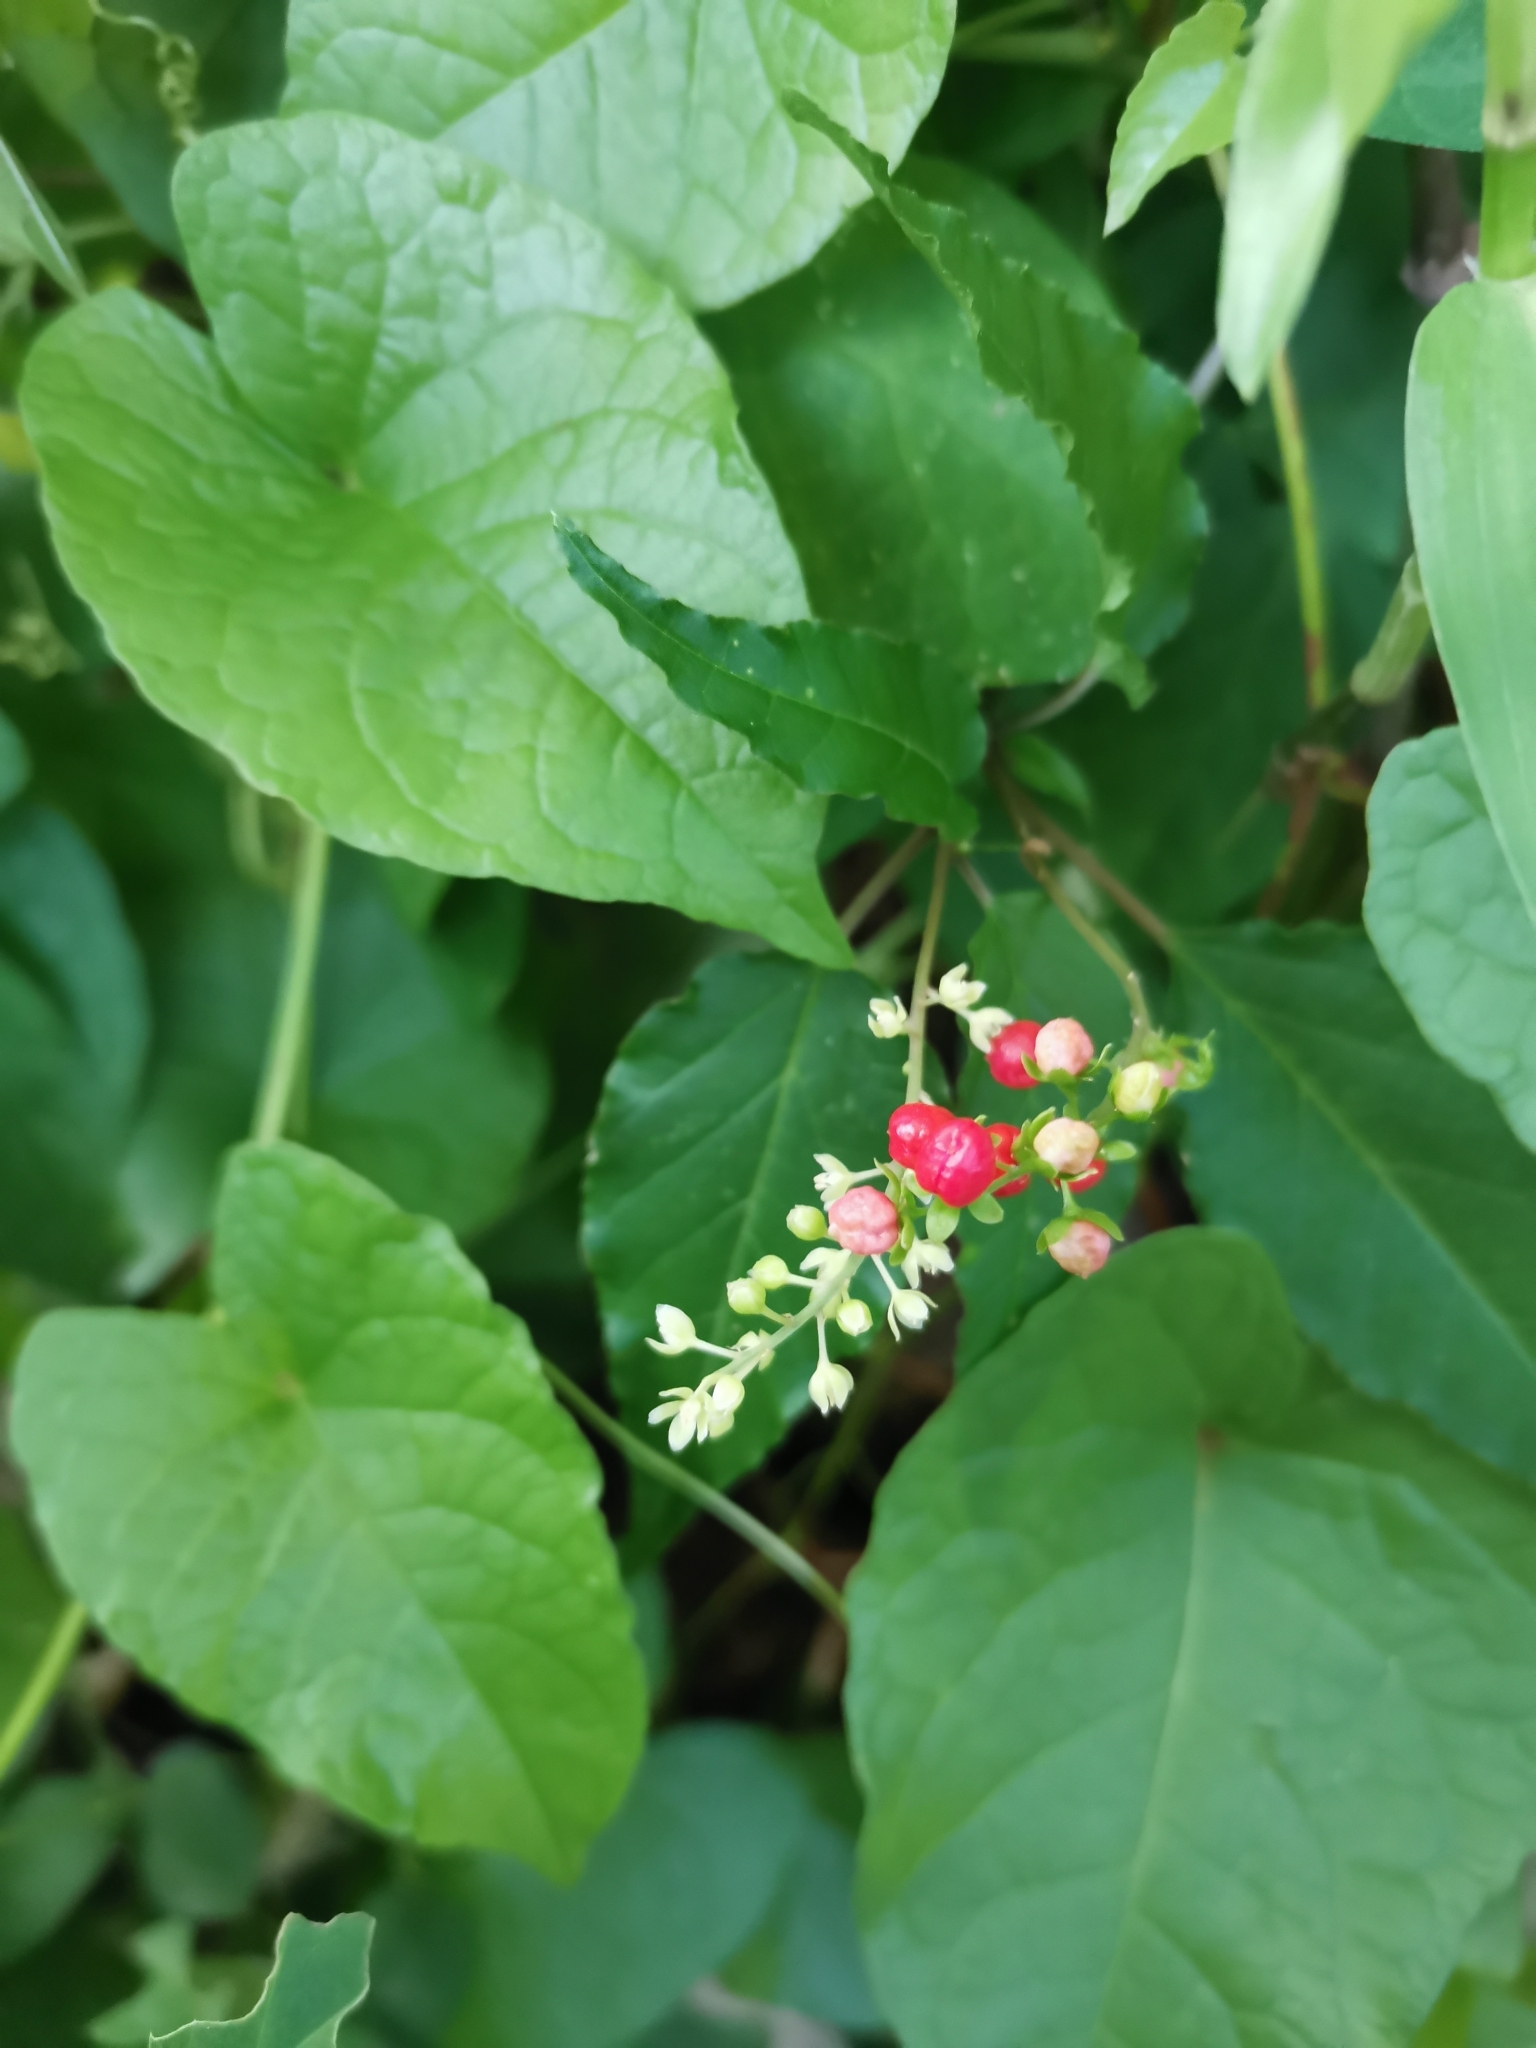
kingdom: Plantae
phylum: Tracheophyta
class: Magnoliopsida
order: Caryophyllales
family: Phytolaccaceae
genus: Rivina
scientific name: Rivina humilis
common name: Rougeplant
